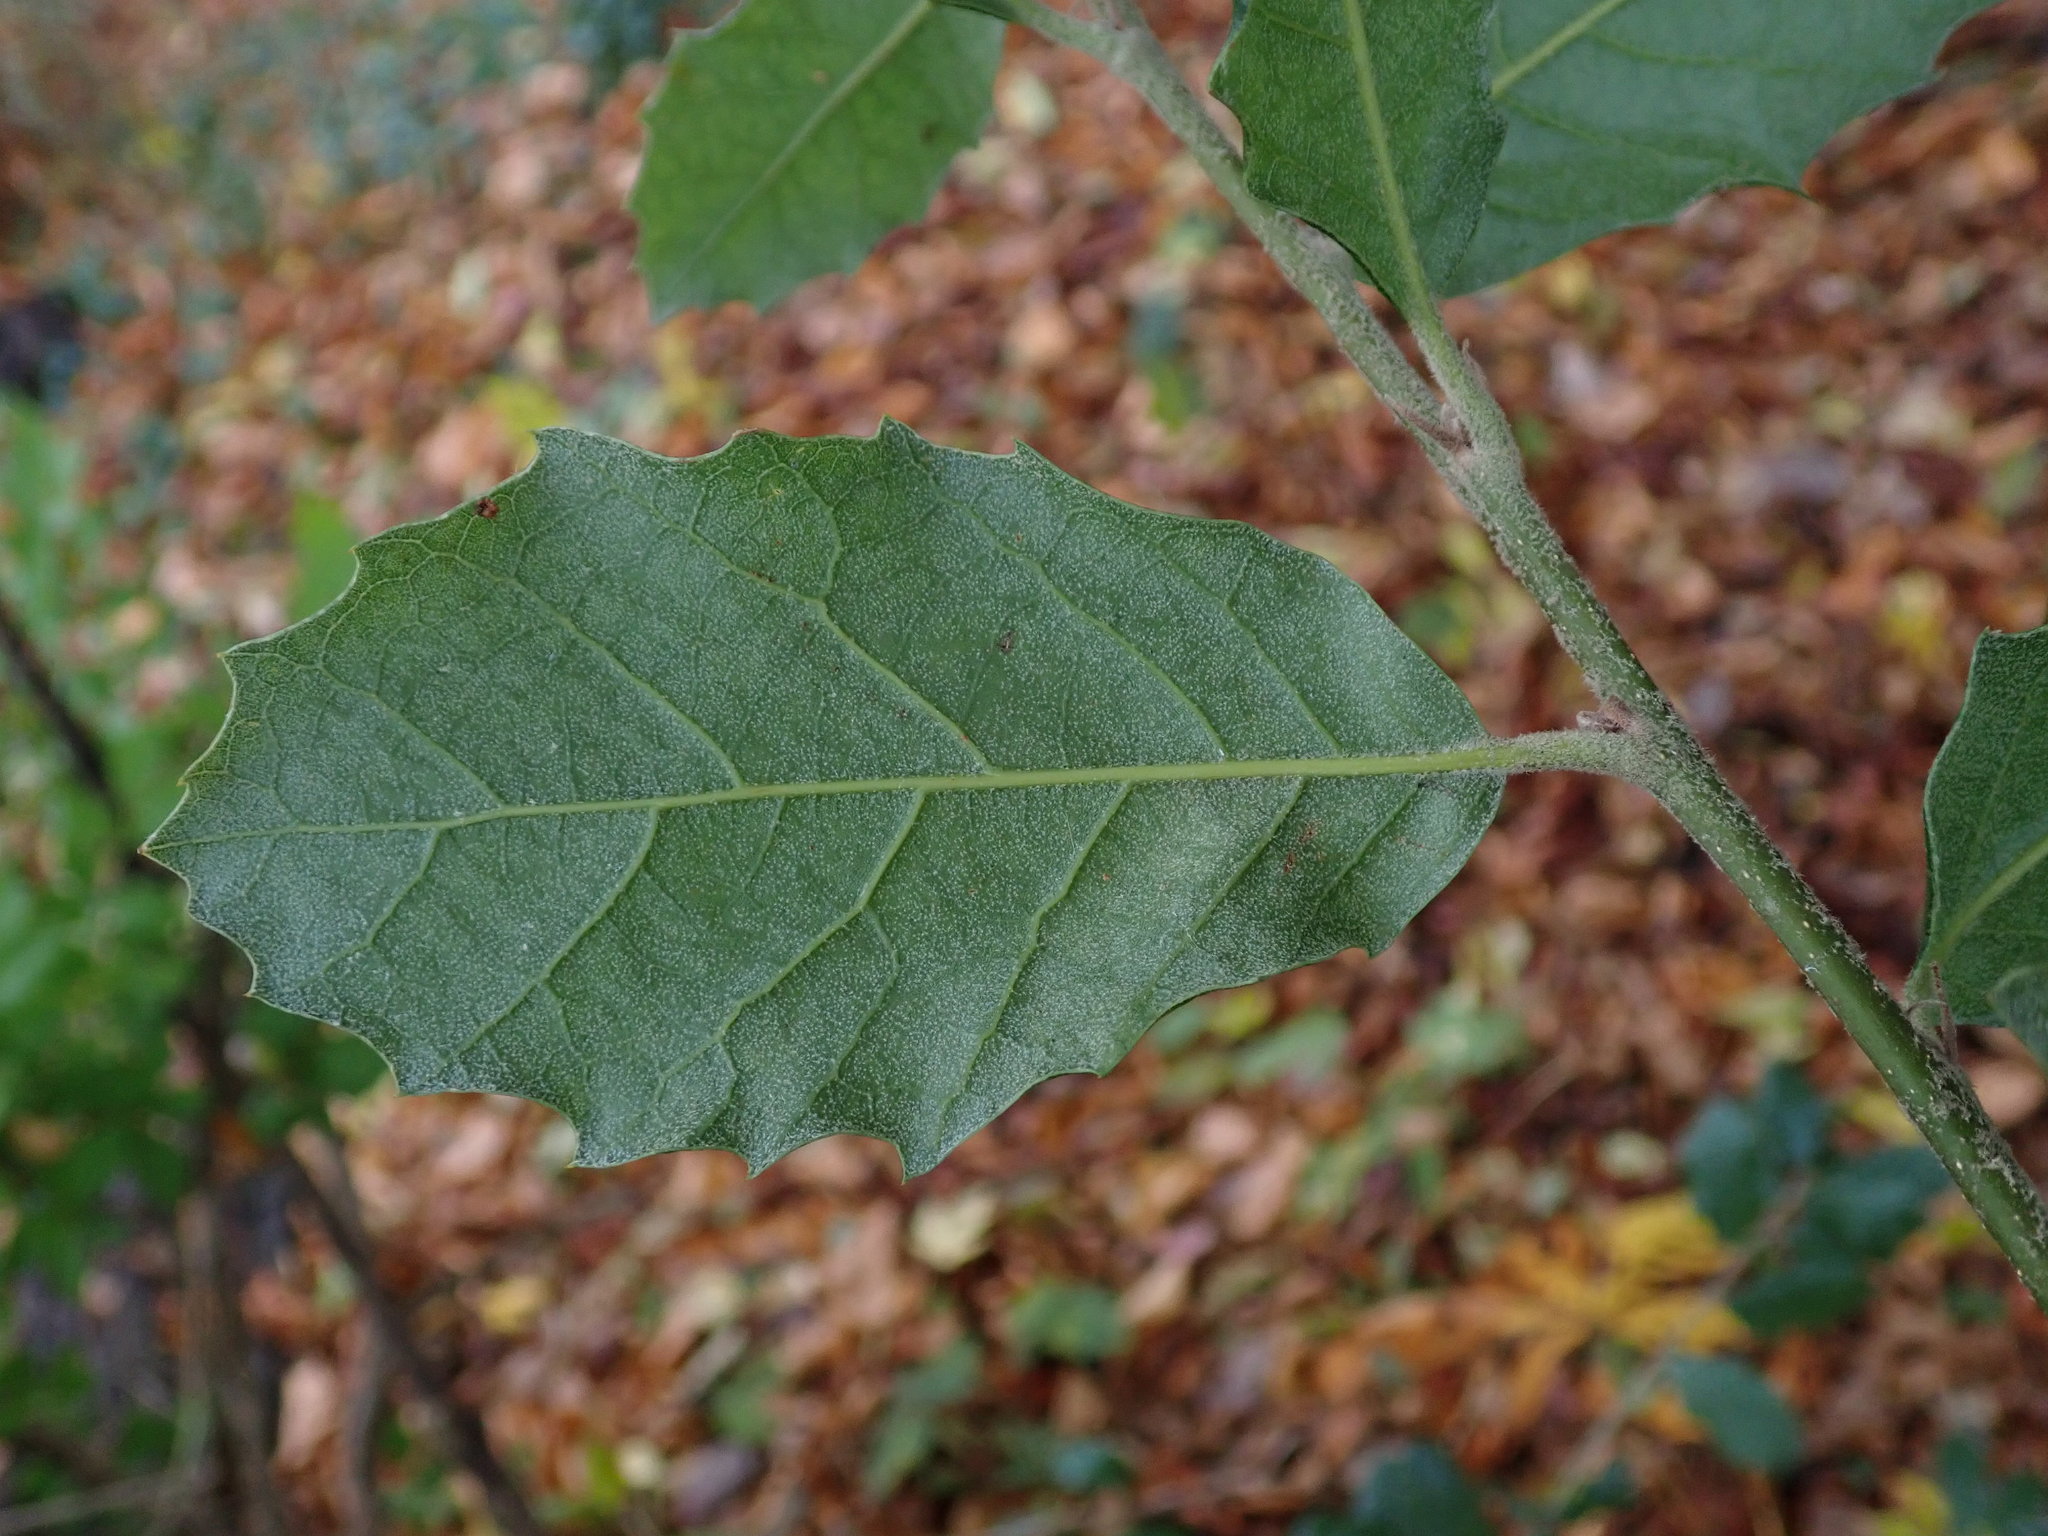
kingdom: Plantae
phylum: Tracheophyta
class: Magnoliopsida
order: Fagales
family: Fagaceae
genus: Quercus
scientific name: Quercus ilex
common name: Evergreen oak
